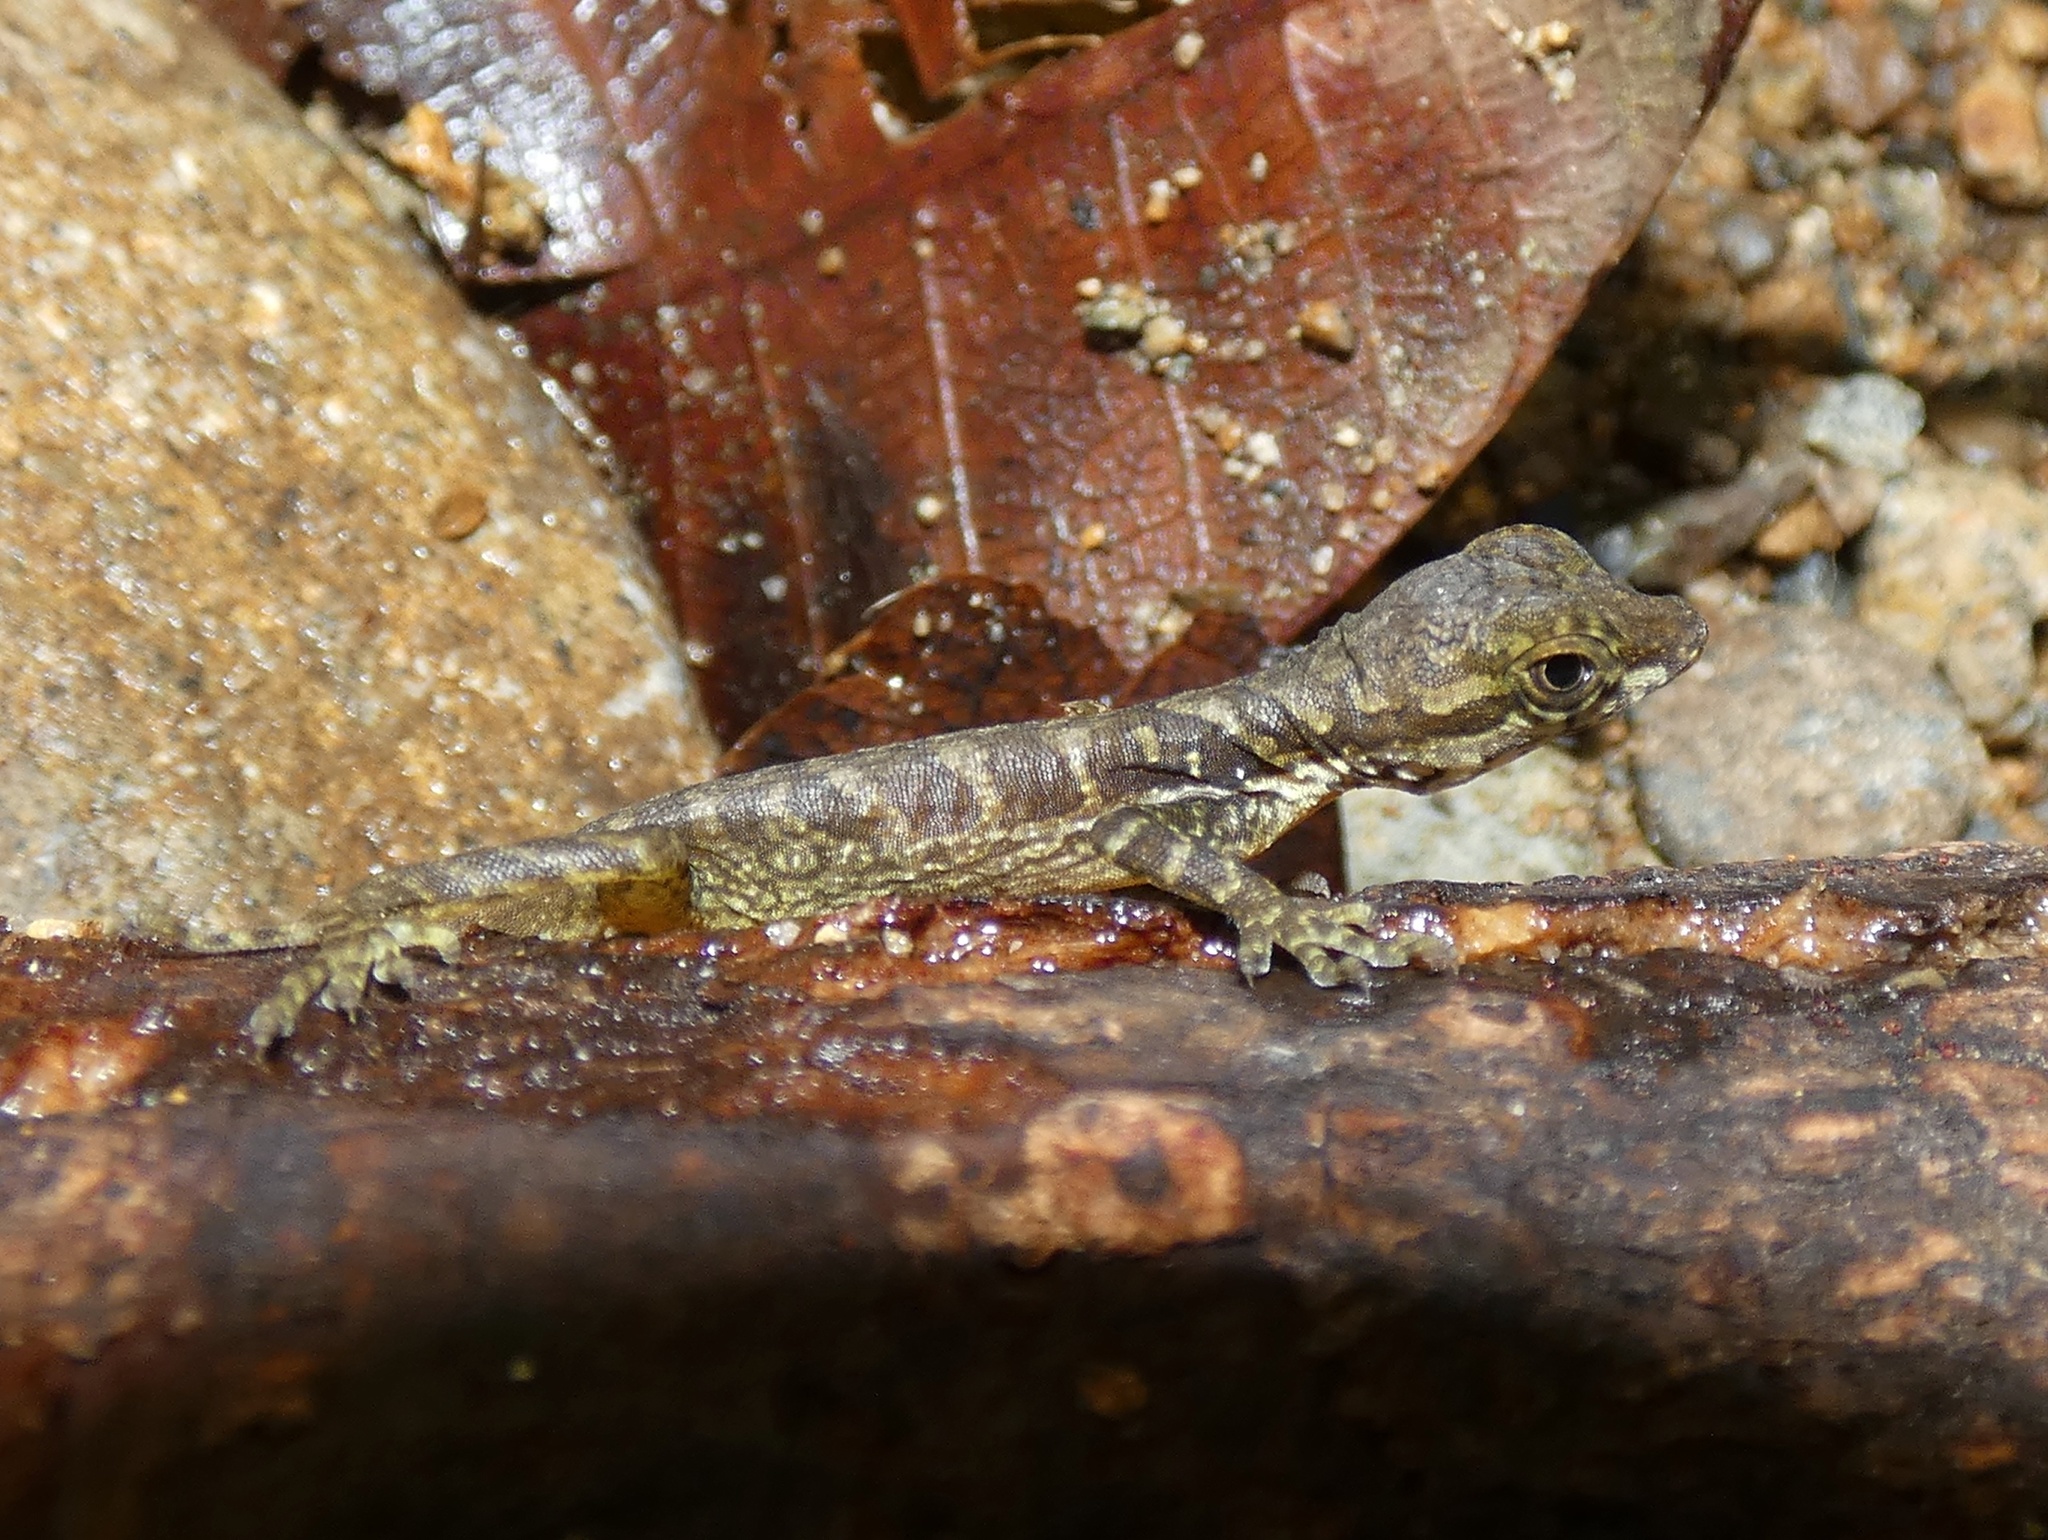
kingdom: Animalia
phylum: Chordata
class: Squamata
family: Dactyloidae
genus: Anolis
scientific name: Anolis capito
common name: Bighead anole
